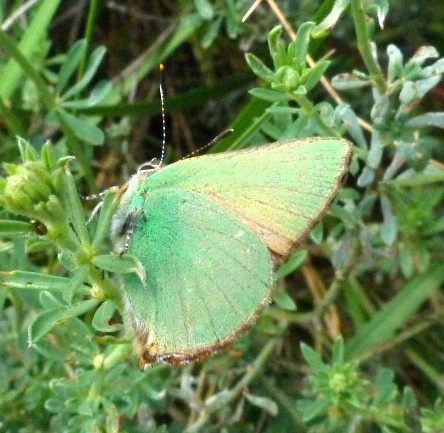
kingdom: Animalia
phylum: Arthropoda
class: Insecta
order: Lepidoptera
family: Lycaenidae
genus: Callophrys
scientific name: Callophrys rubi
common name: Green hairstreak
